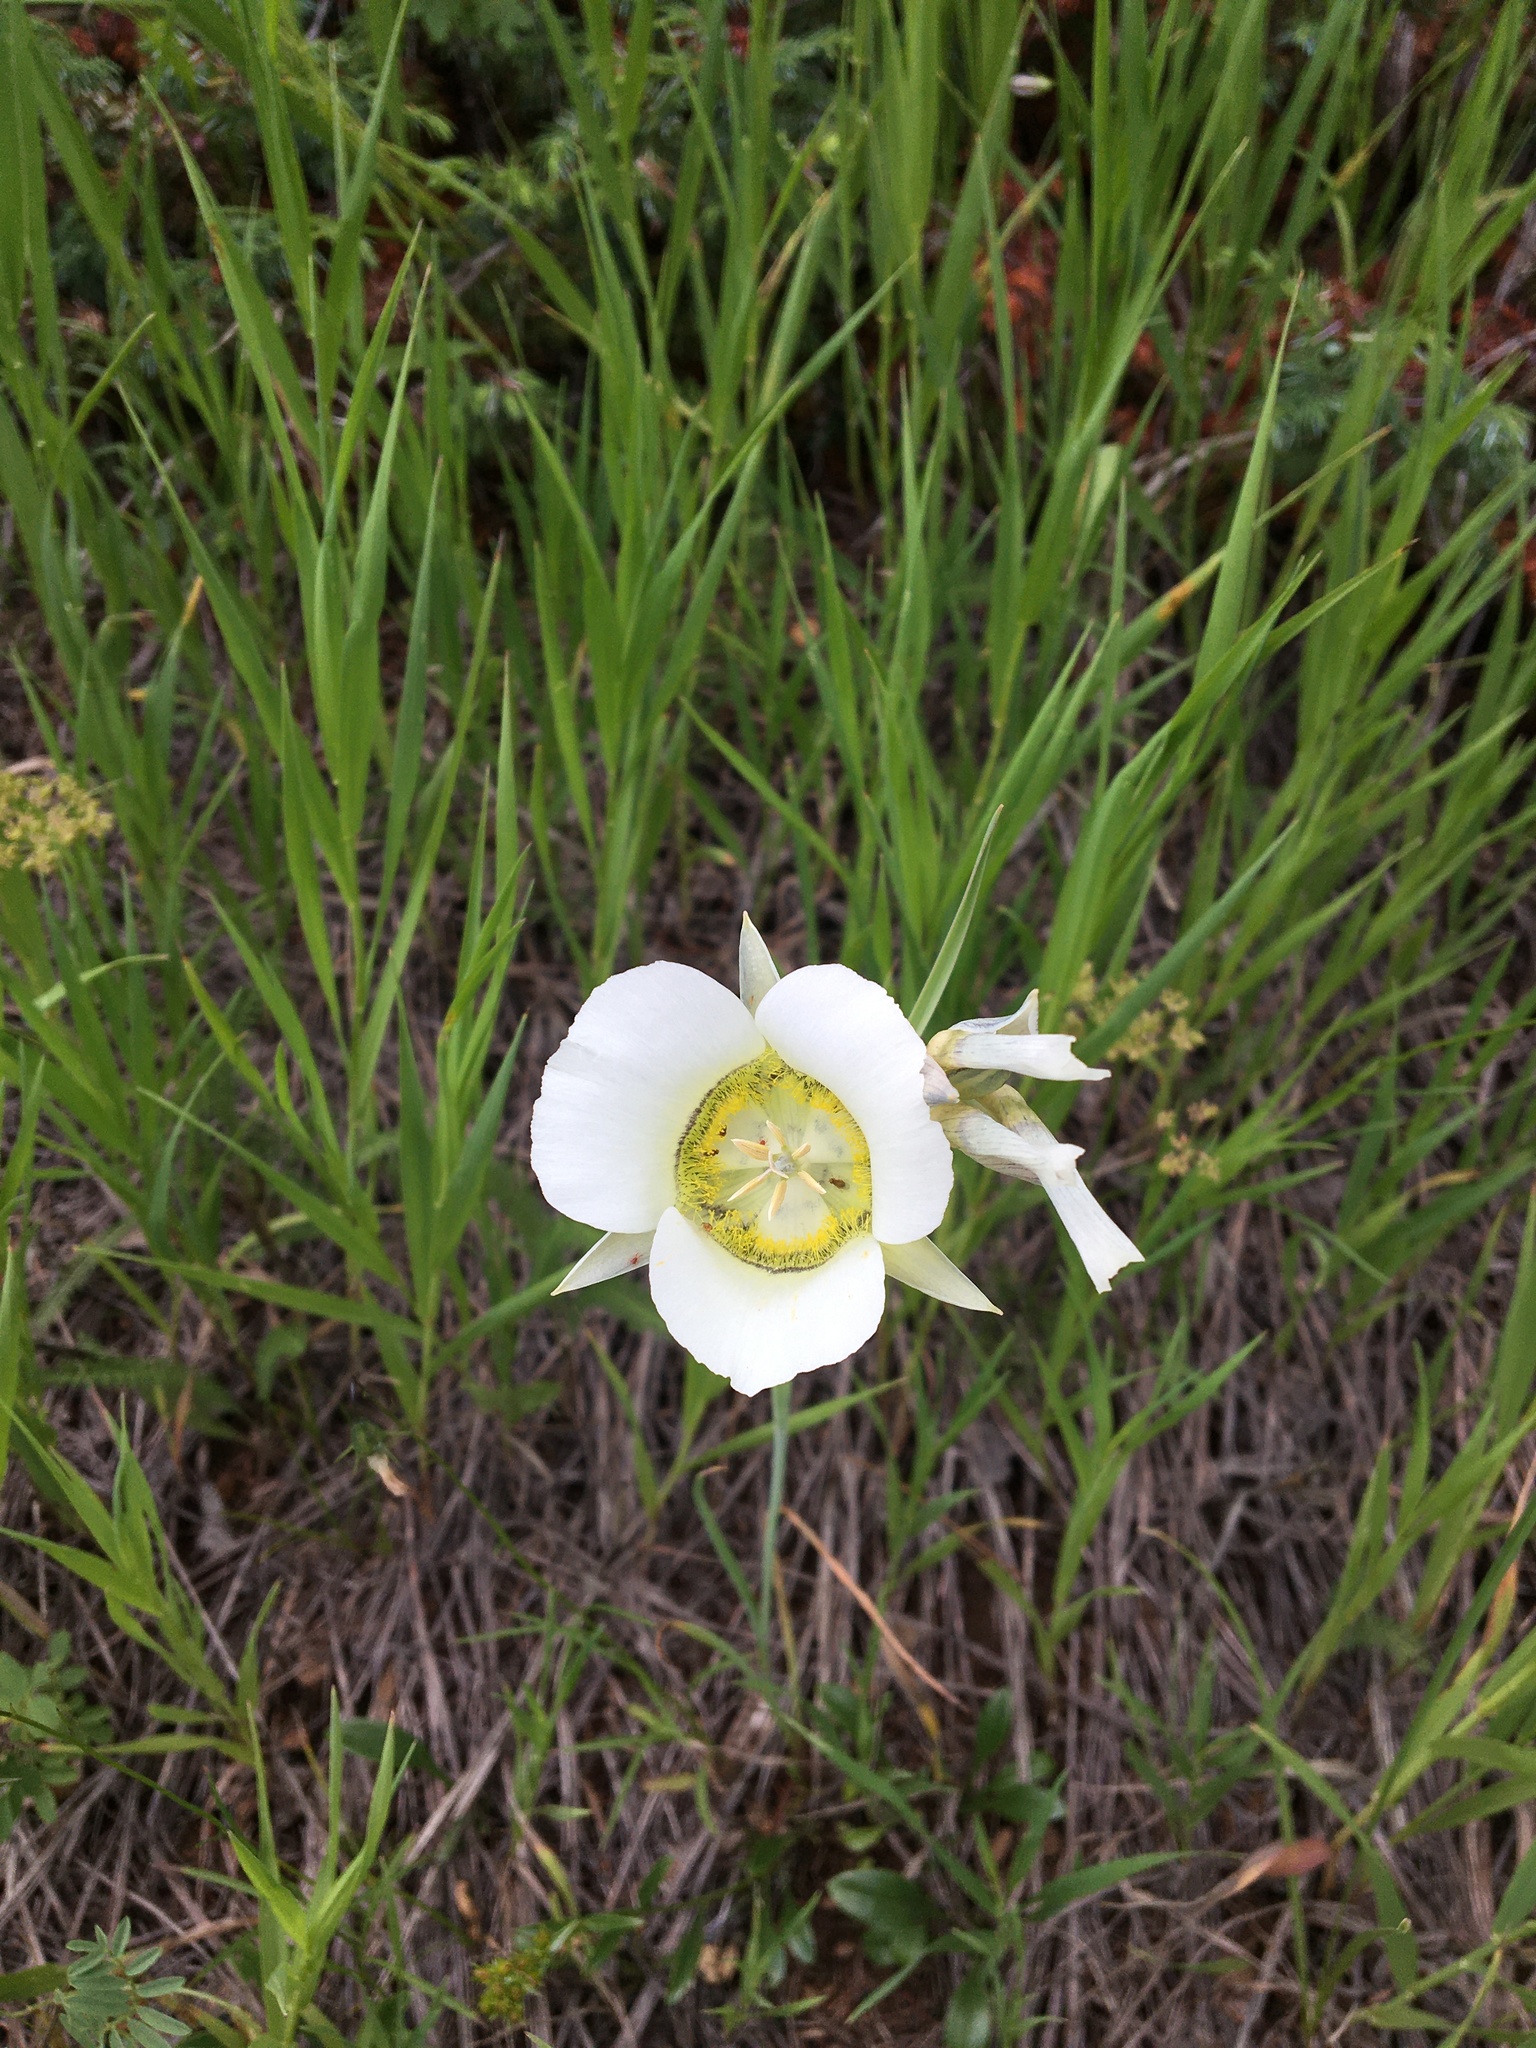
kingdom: Plantae
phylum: Tracheophyta
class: Liliopsida
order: Liliales
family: Liliaceae
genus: Calochortus
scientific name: Calochortus gunnisonii
